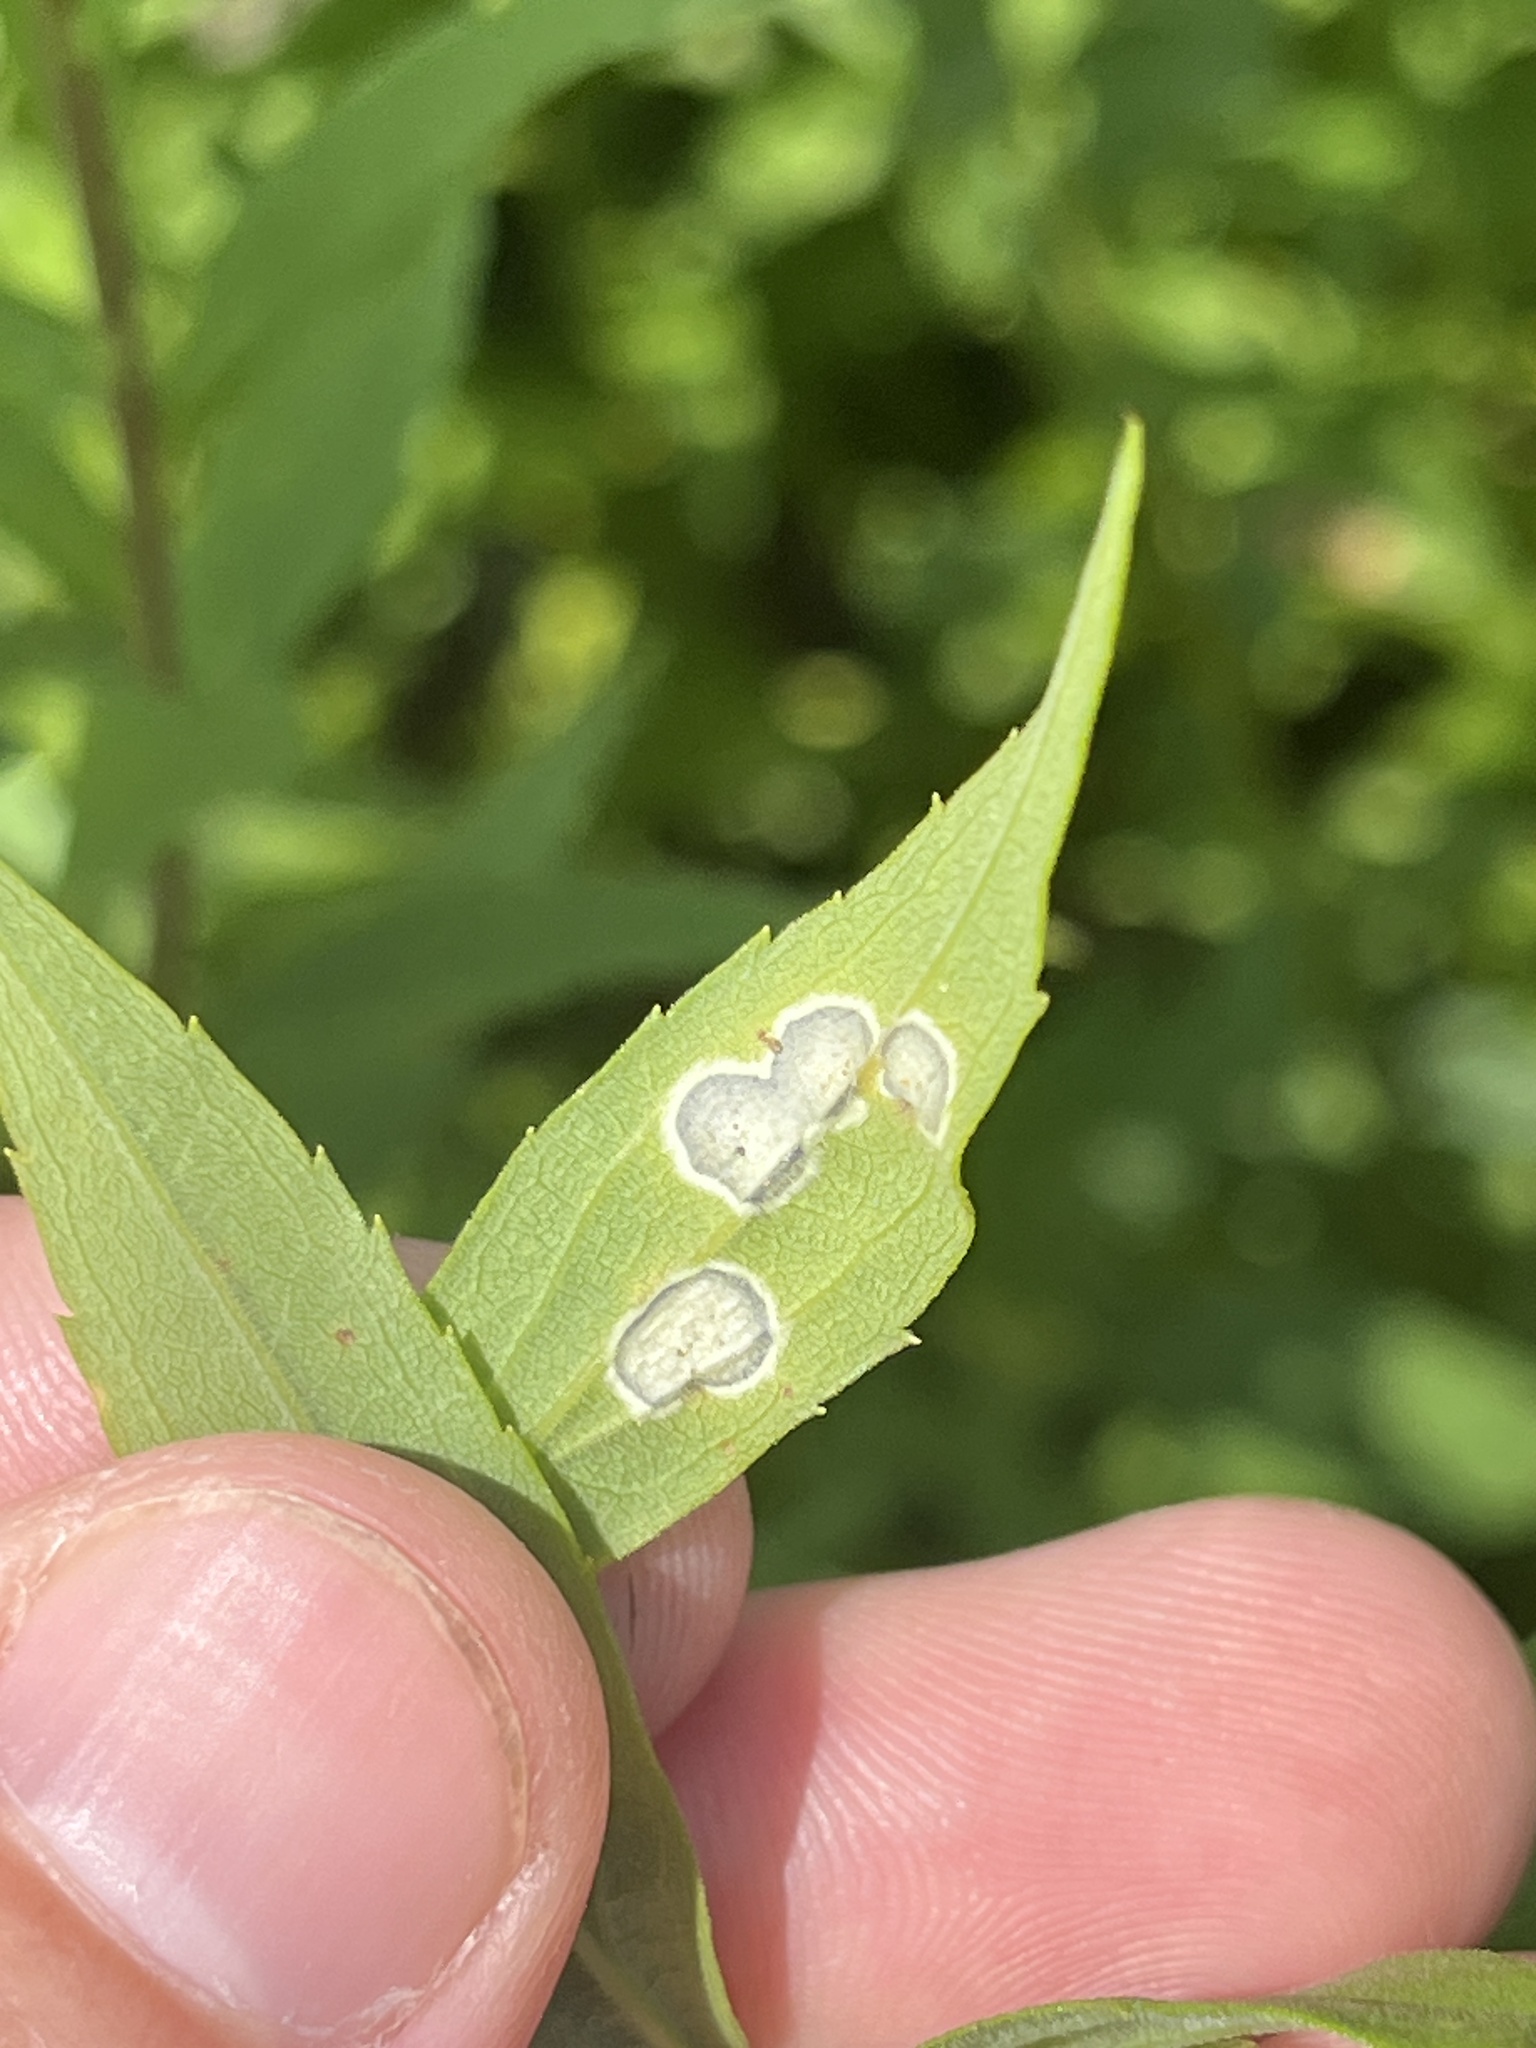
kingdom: Animalia
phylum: Arthropoda
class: Insecta
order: Diptera
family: Cecidomyiidae
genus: Asteromyia
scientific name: Asteromyia carbonifera
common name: Carbonifera goldenrod gall midge
